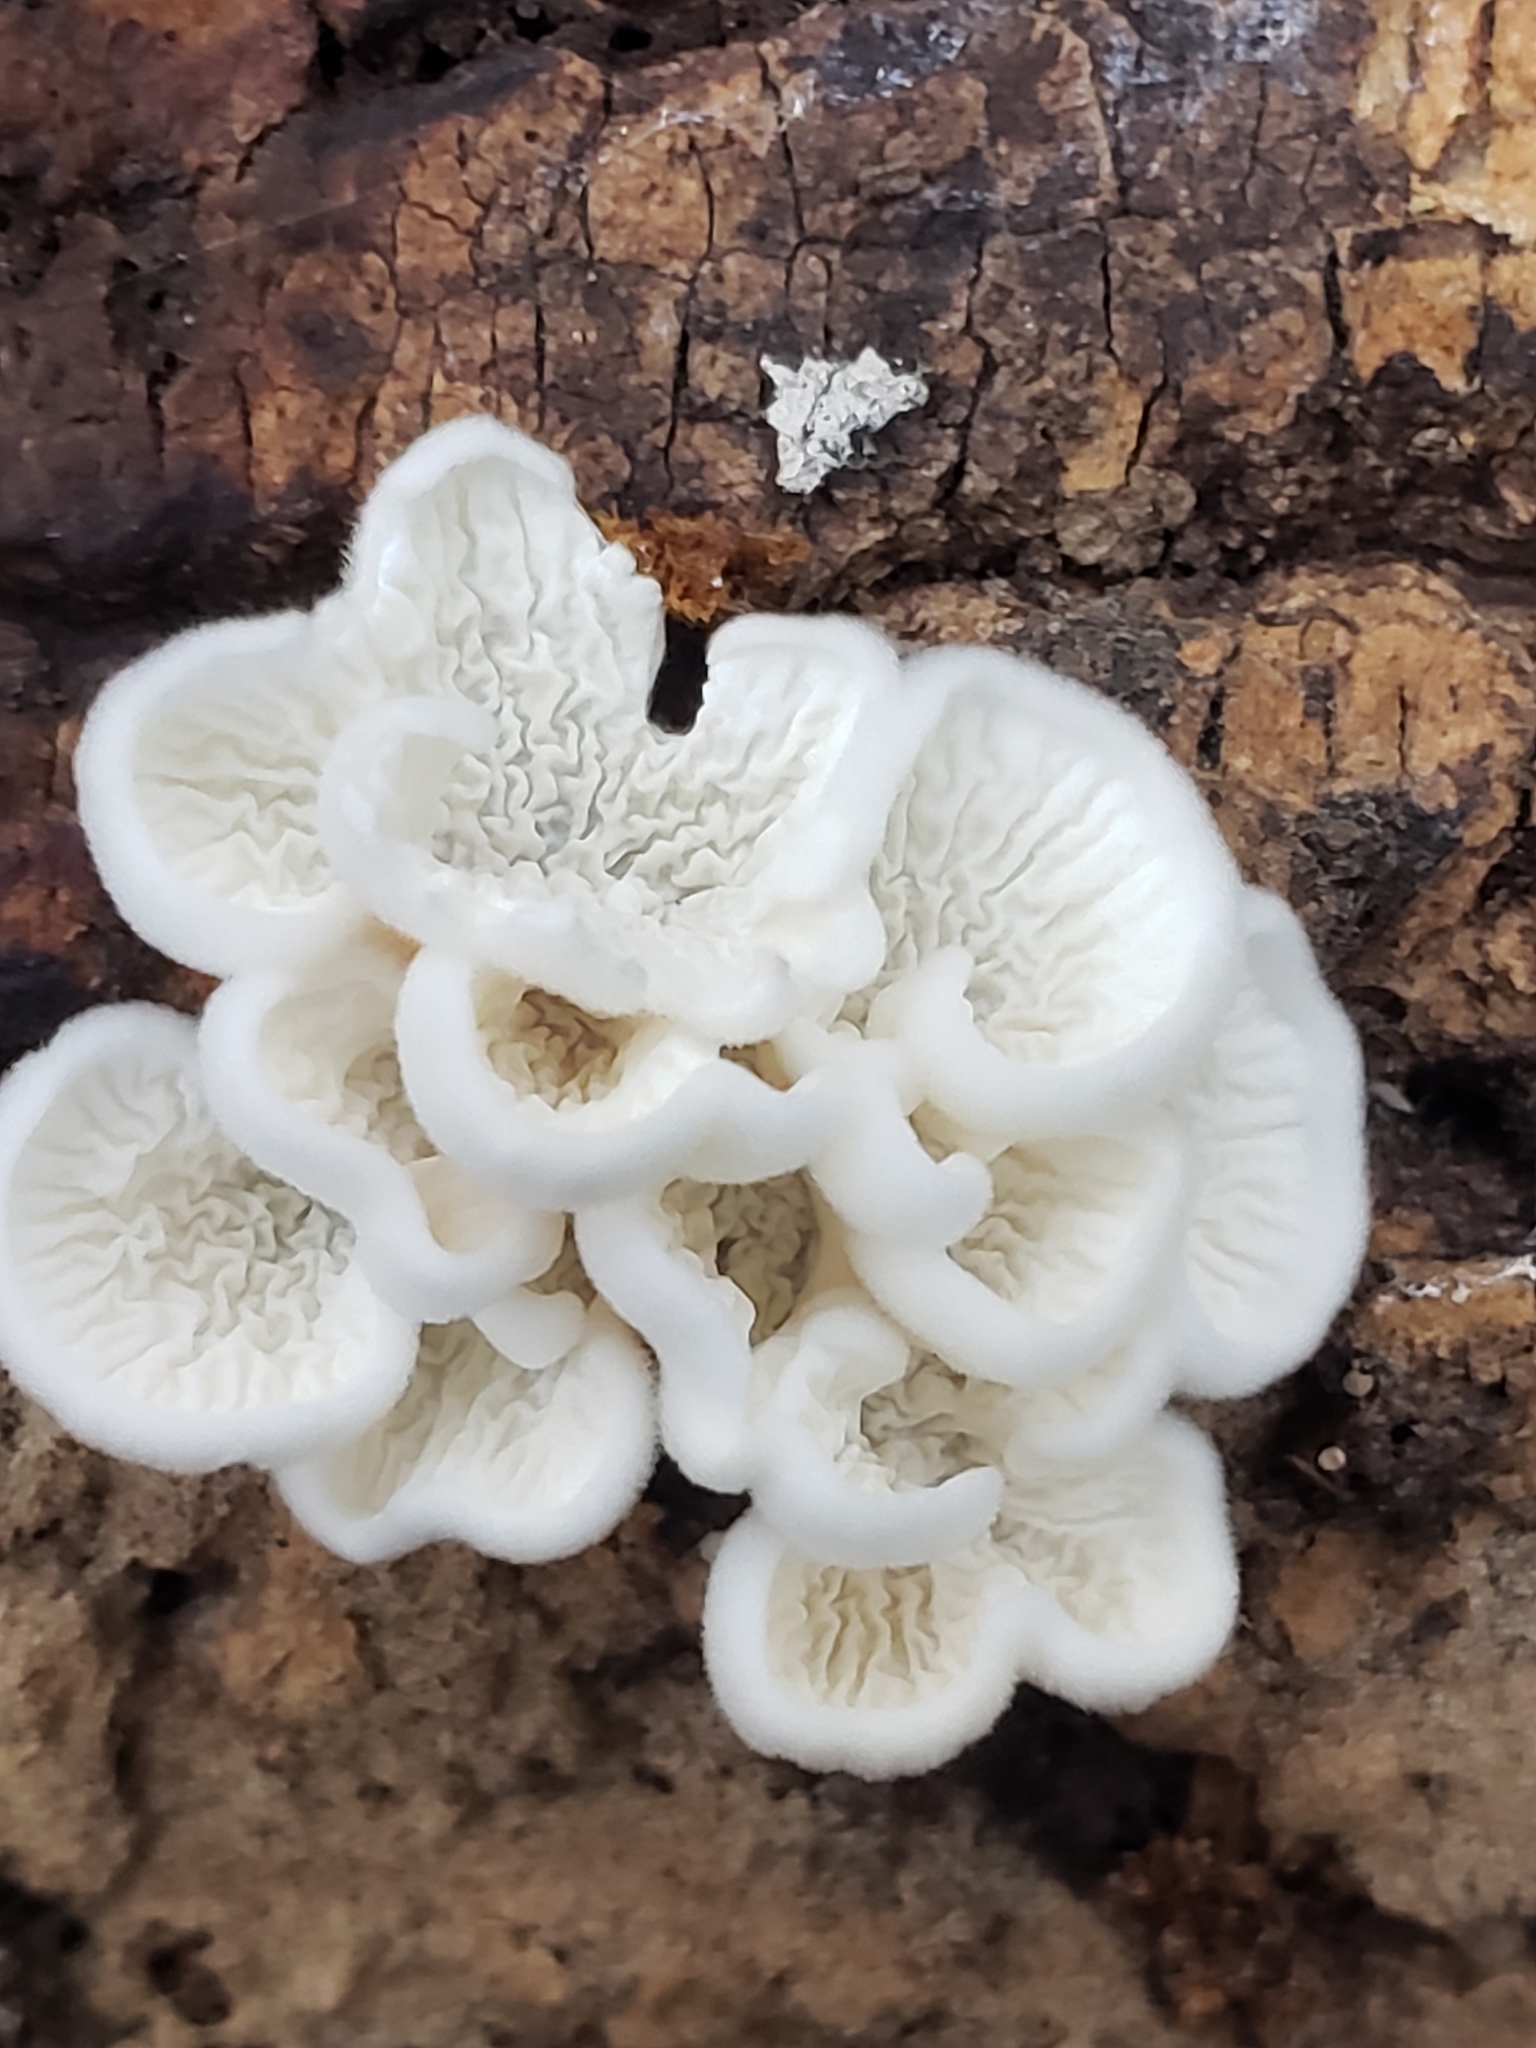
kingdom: Fungi
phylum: Basidiomycota
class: Agaricomycetes
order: Amylocorticiales
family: Amylocorticiaceae
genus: Plicaturopsis
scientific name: Plicaturopsis crispa
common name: Crimped gill
